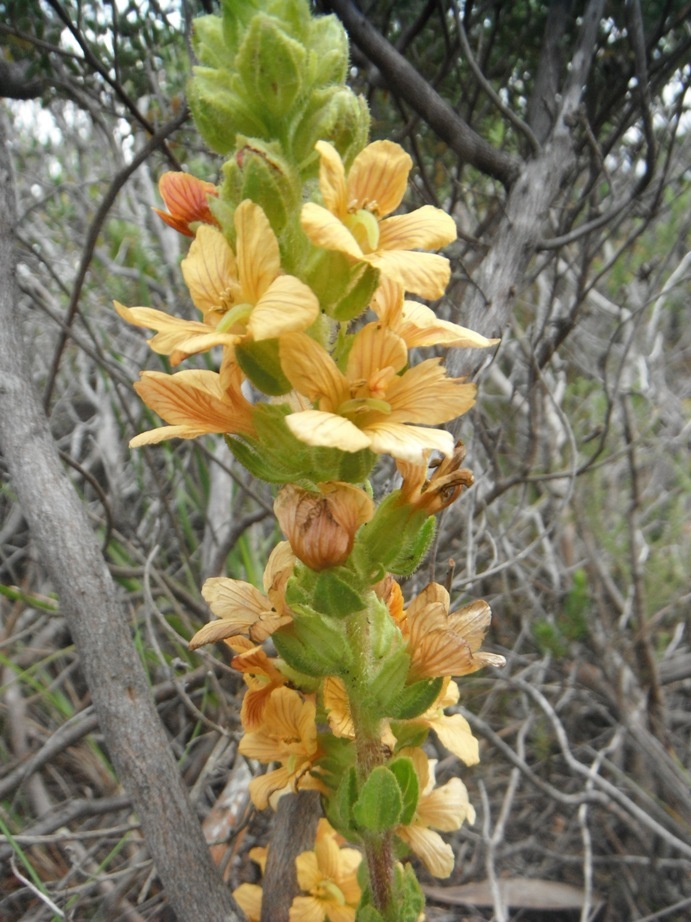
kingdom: Plantae
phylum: Tracheophyta
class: Magnoliopsida
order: Lamiales
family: Orobanchaceae
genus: Alectra
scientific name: Alectra sessiliflora
